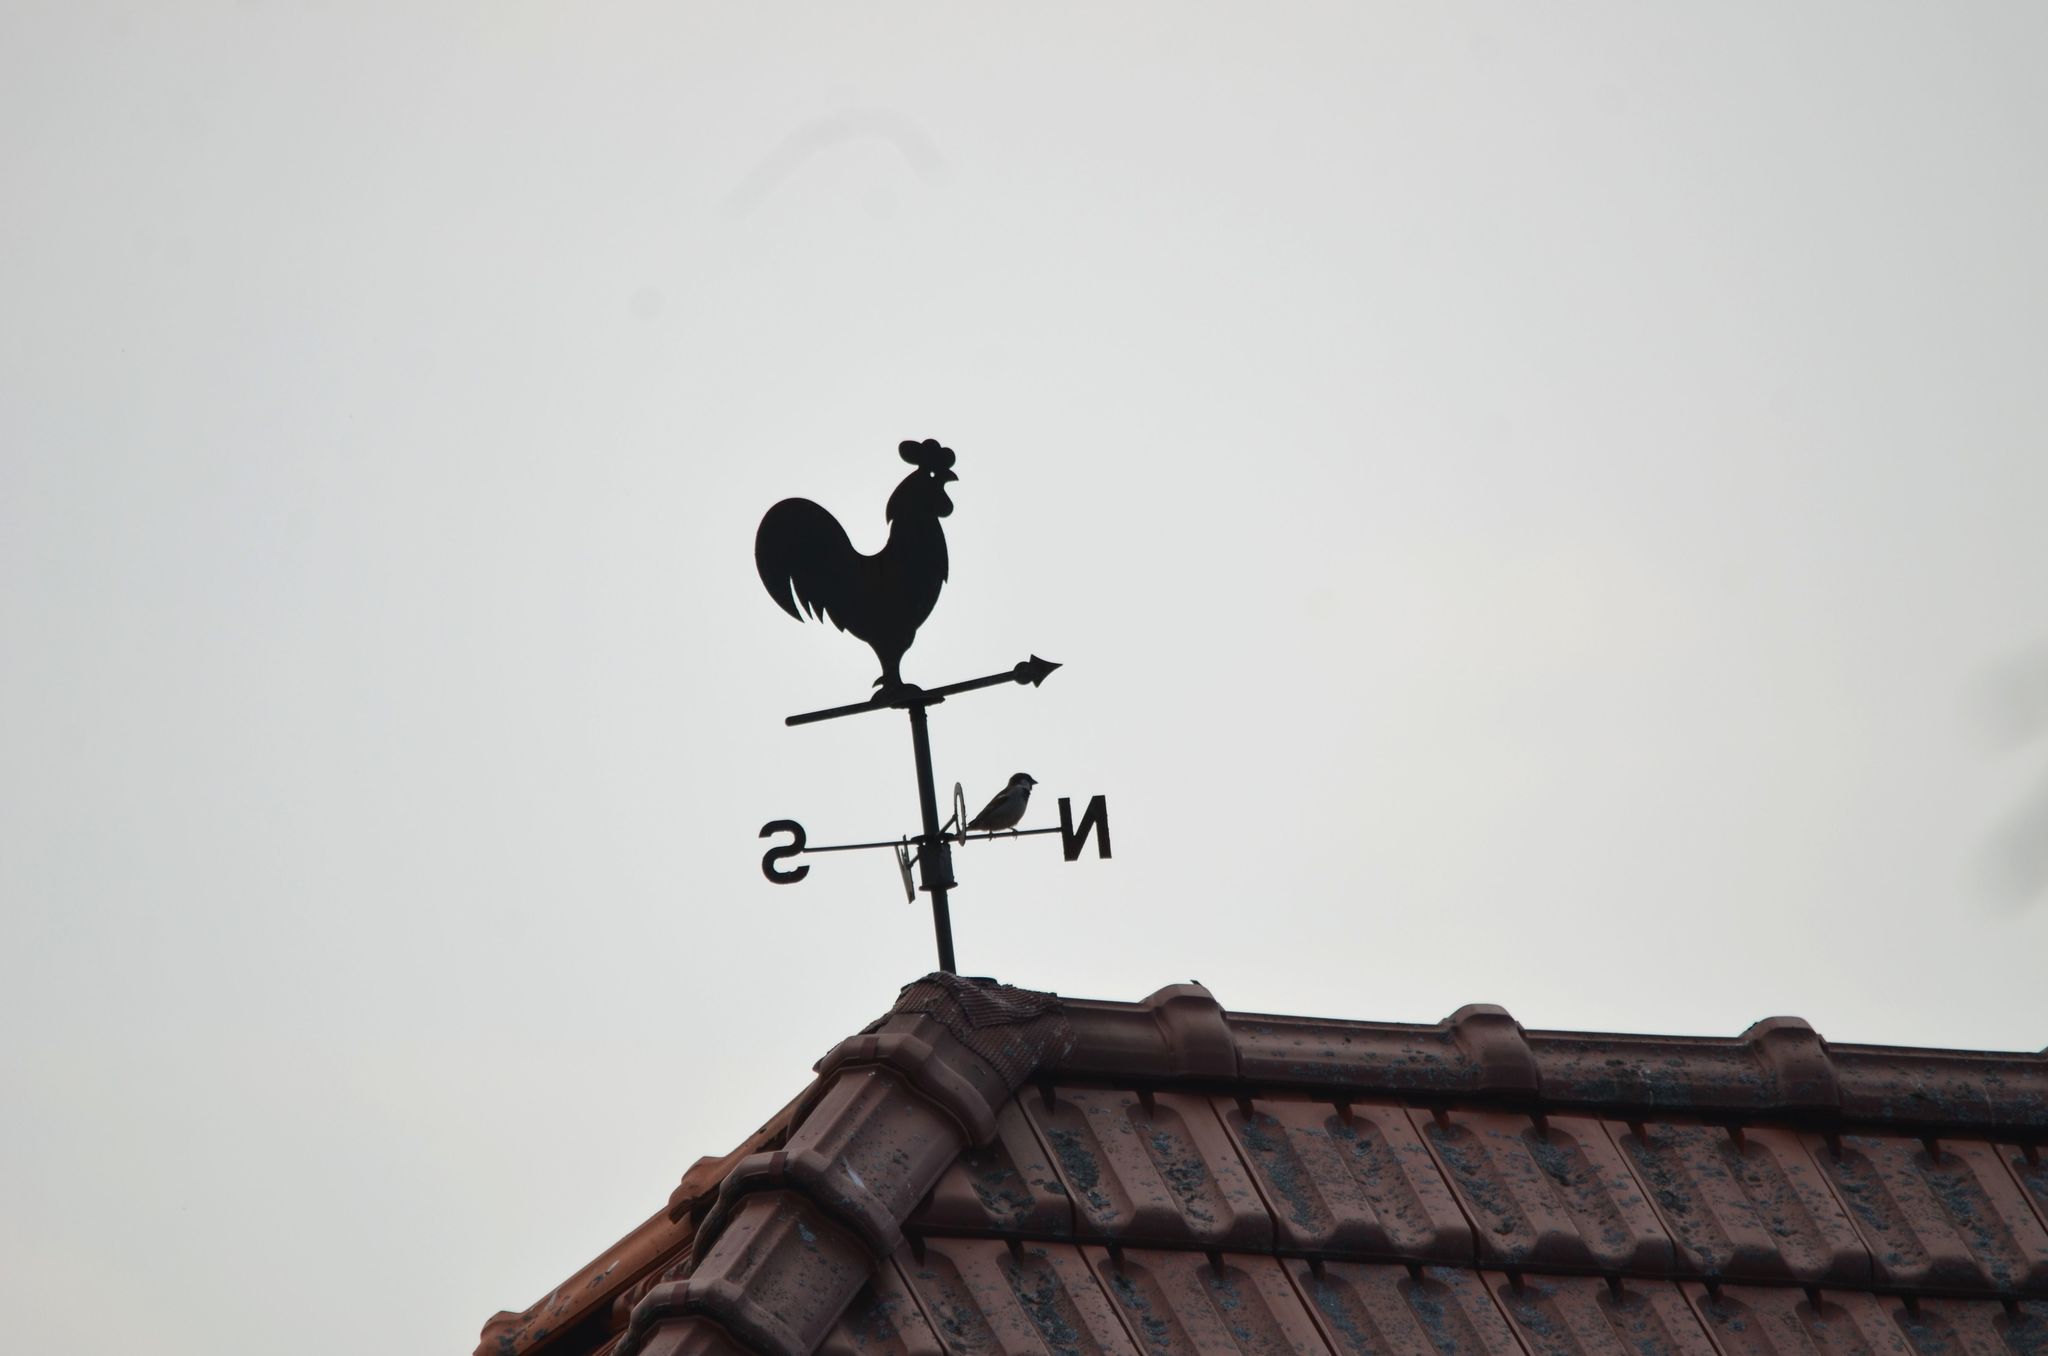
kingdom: Animalia
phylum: Chordata
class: Aves
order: Passeriformes
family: Passeridae
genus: Passer
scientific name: Passer domesticus
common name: House sparrow
